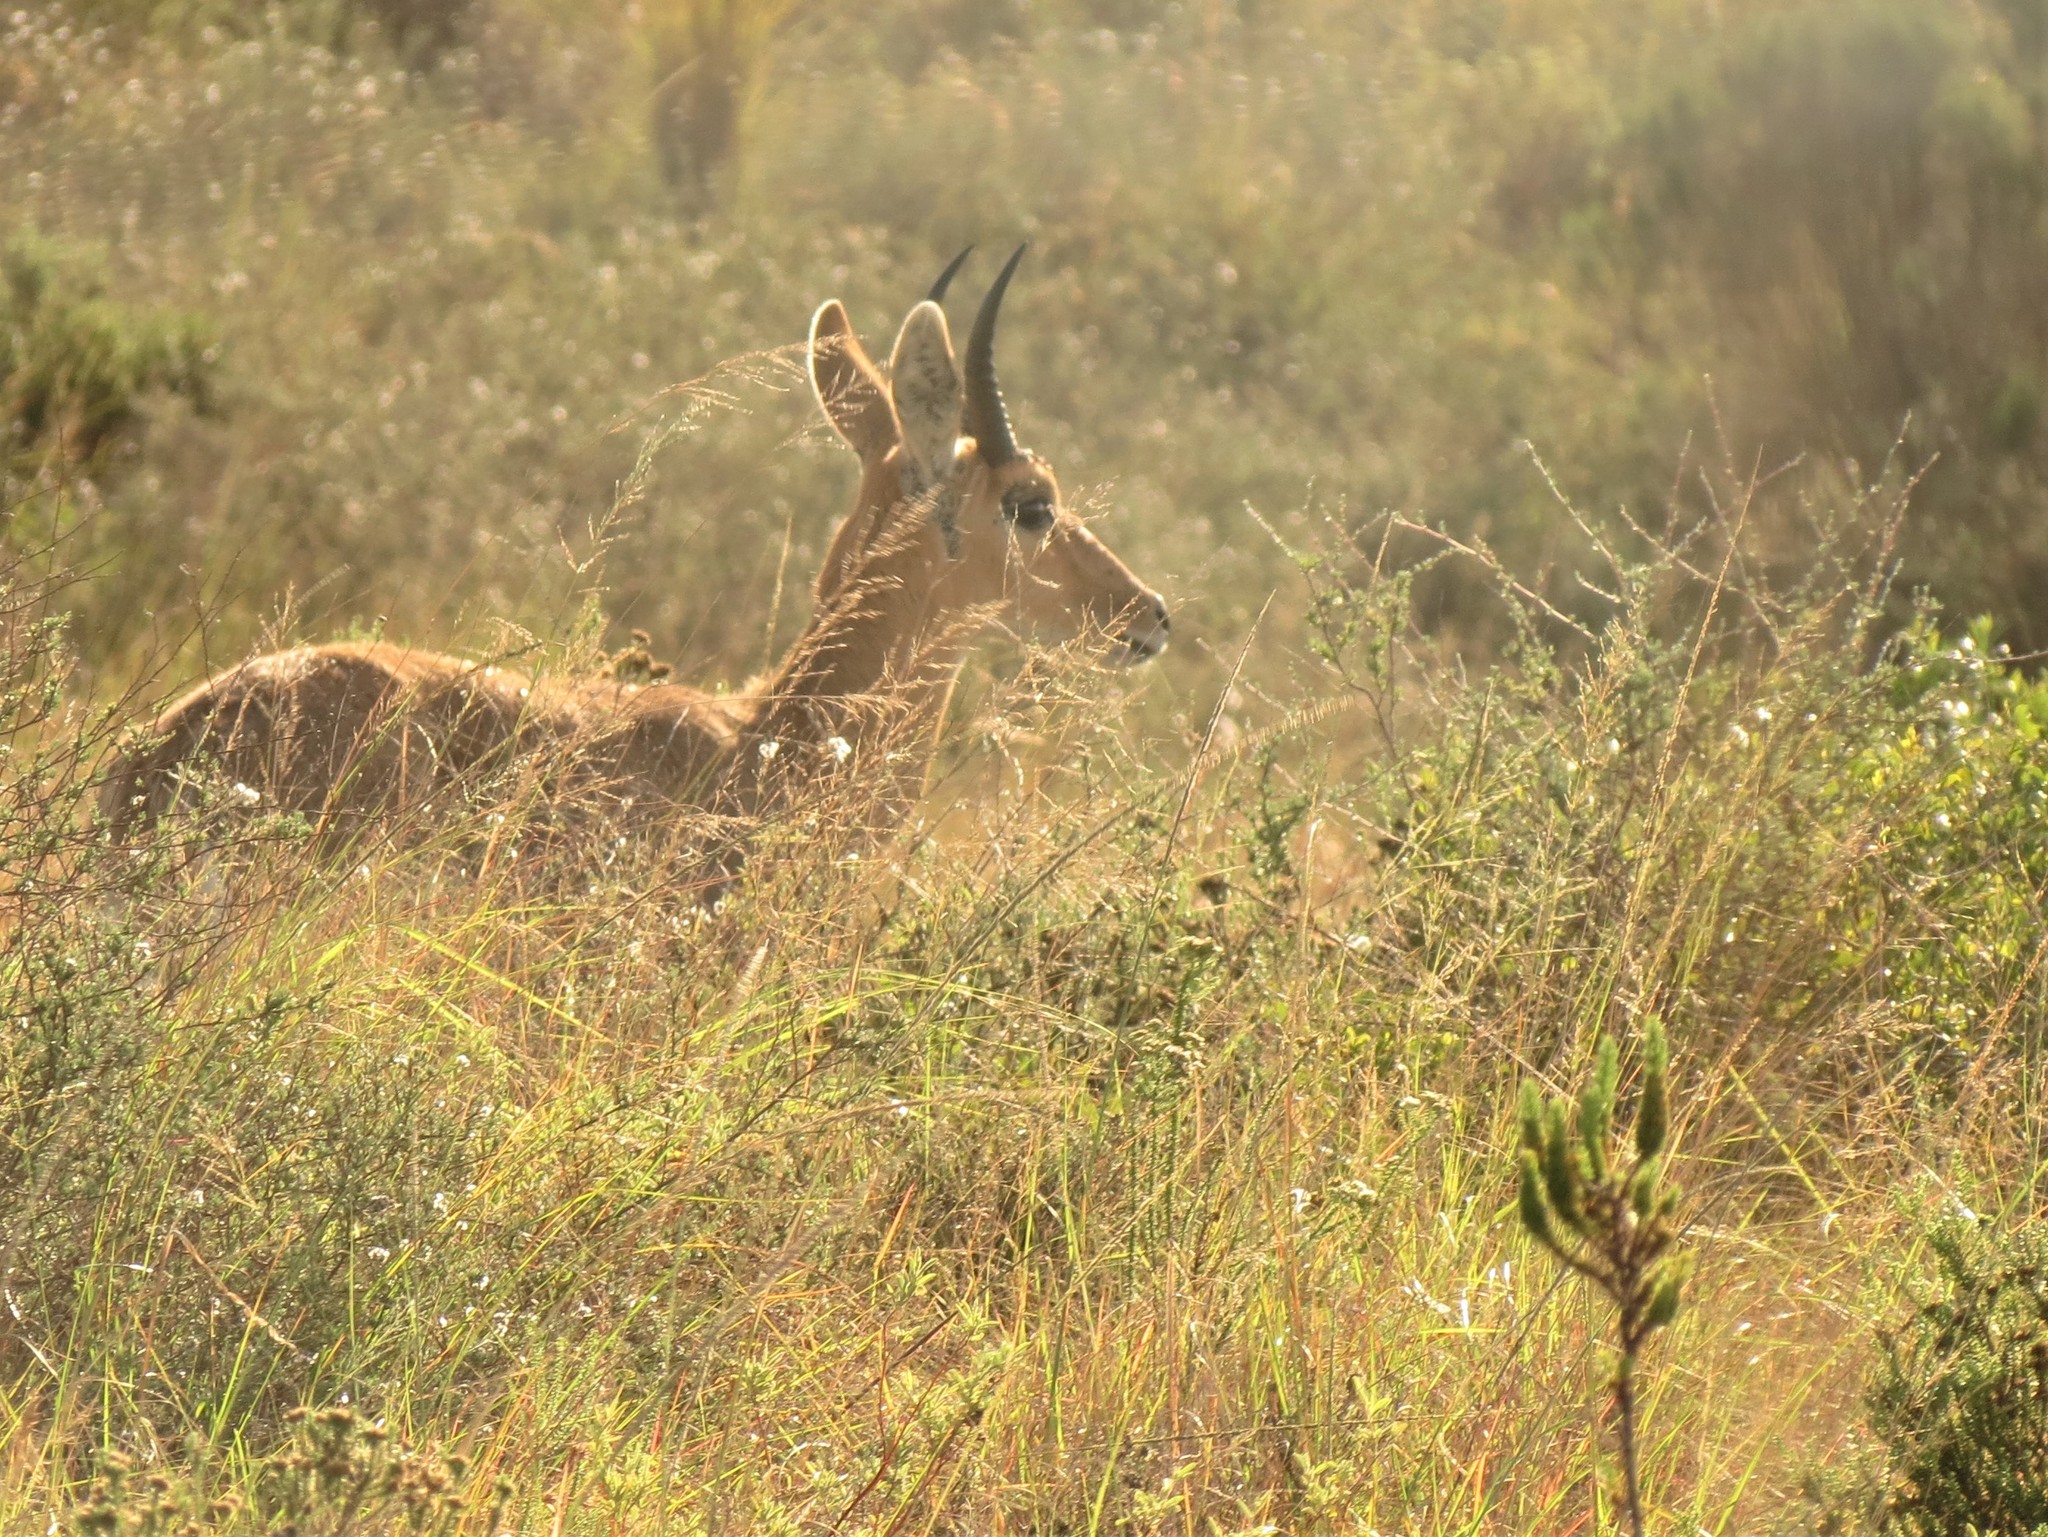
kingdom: Animalia
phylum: Chordata
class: Mammalia
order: Artiodactyla
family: Bovidae
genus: Redunca
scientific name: Redunca fulvorufula
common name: Mountain reedbuck
